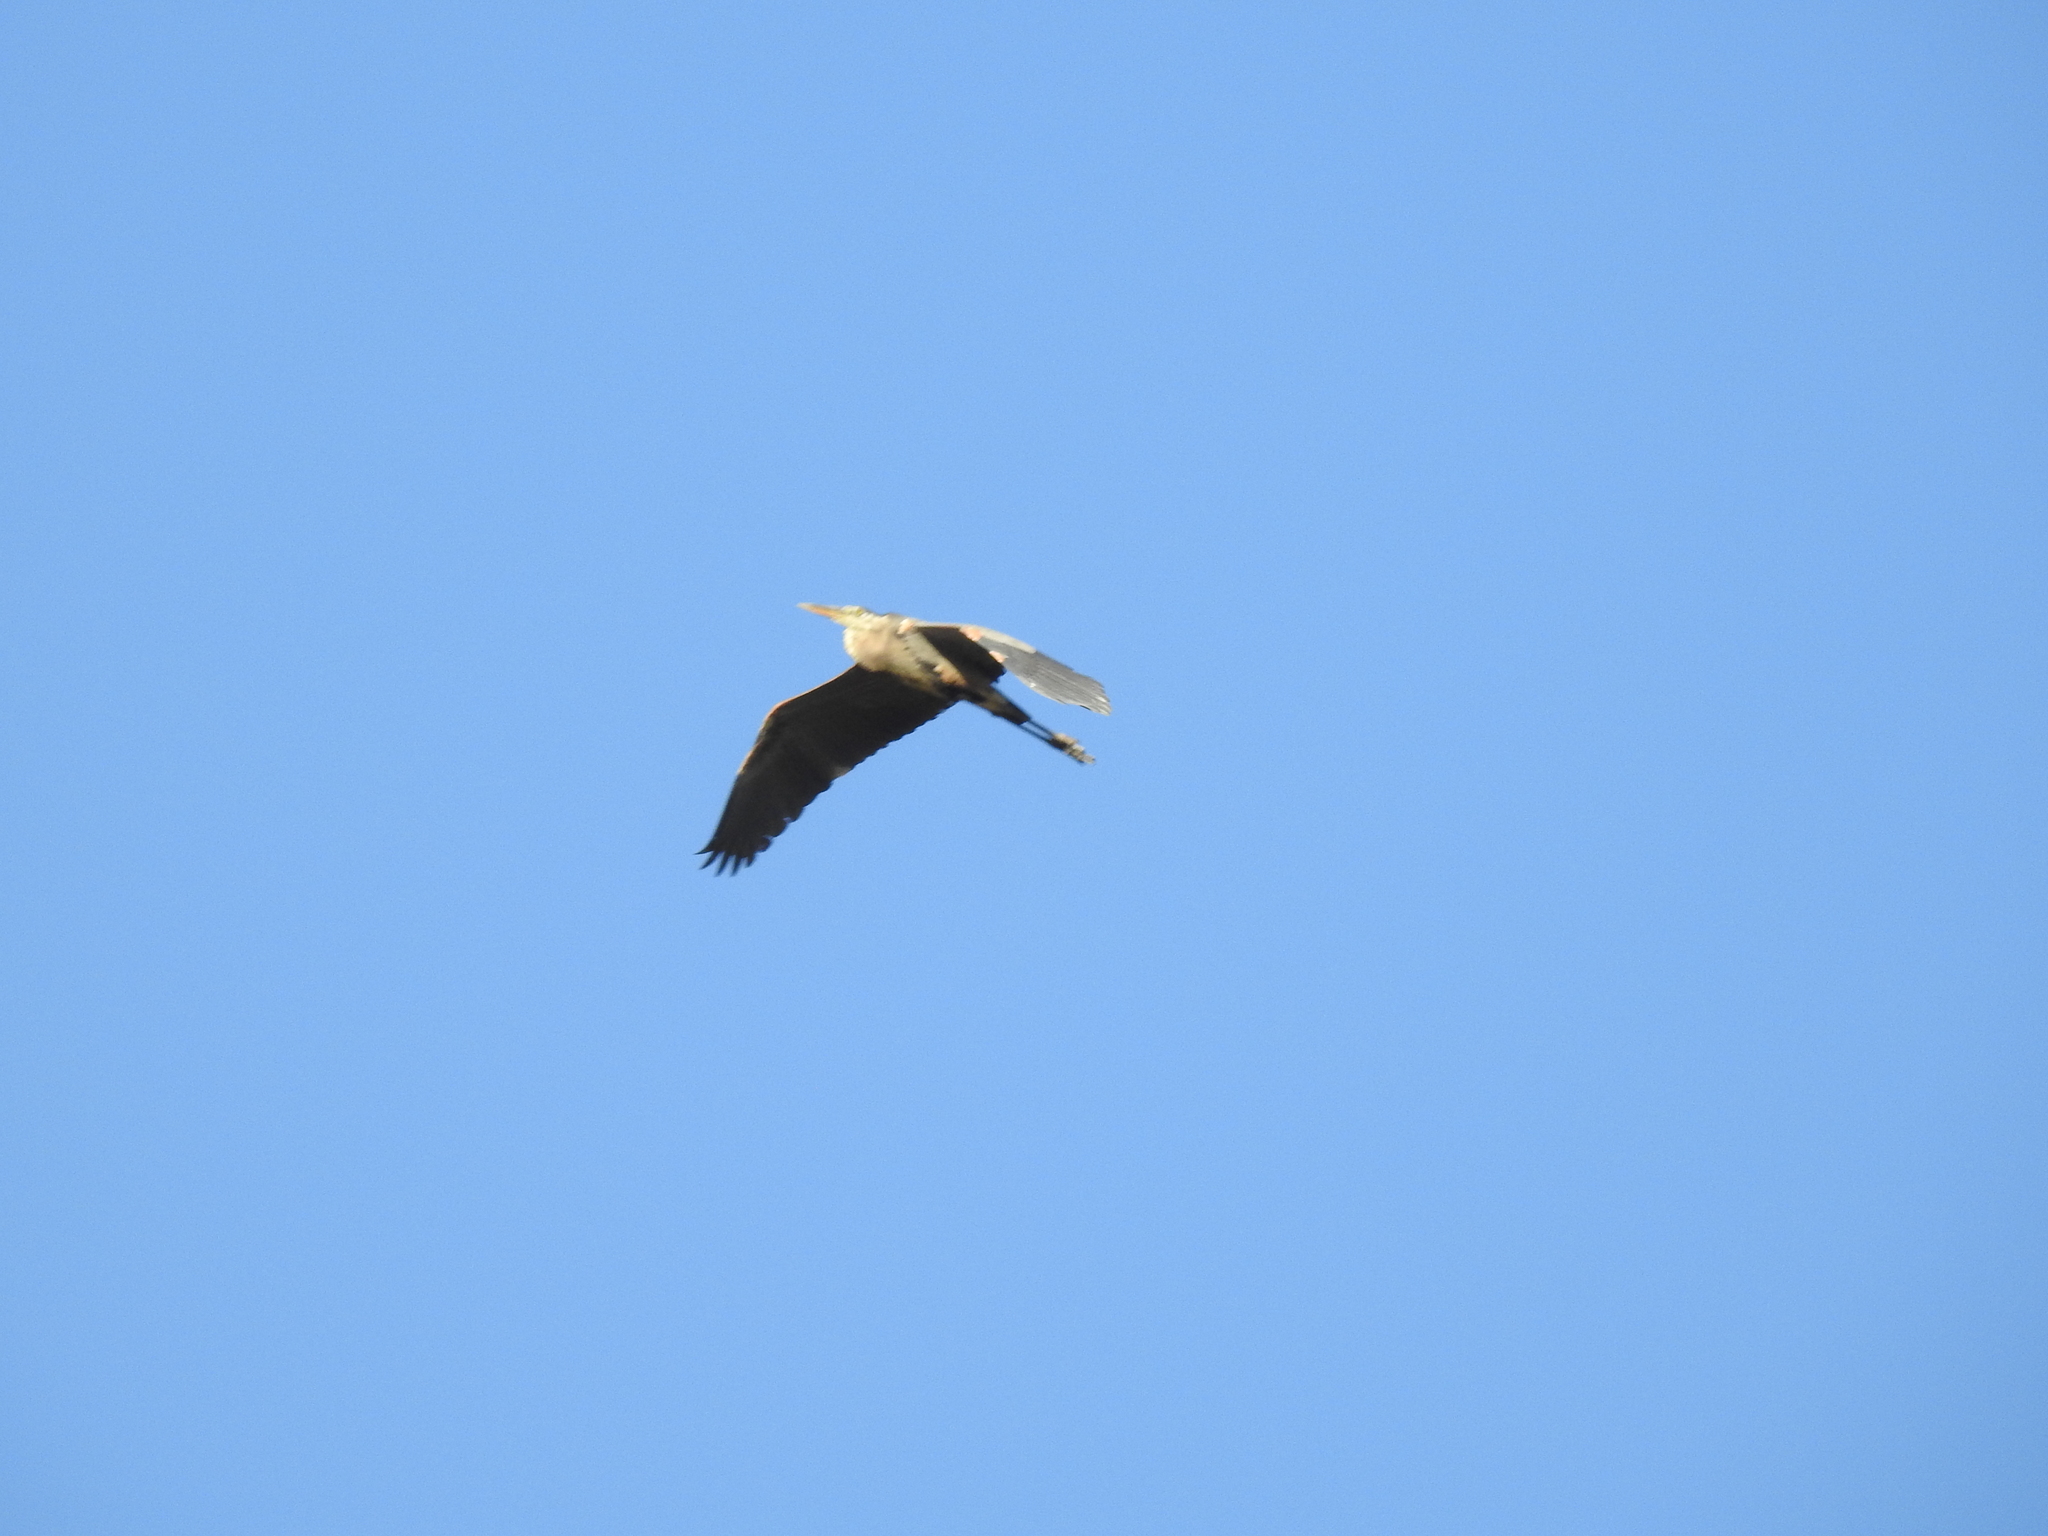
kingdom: Animalia
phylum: Chordata
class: Aves
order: Pelecaniformes
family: Ardeidae
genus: Ardea
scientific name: Ardea herodias
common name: Great blue heron
